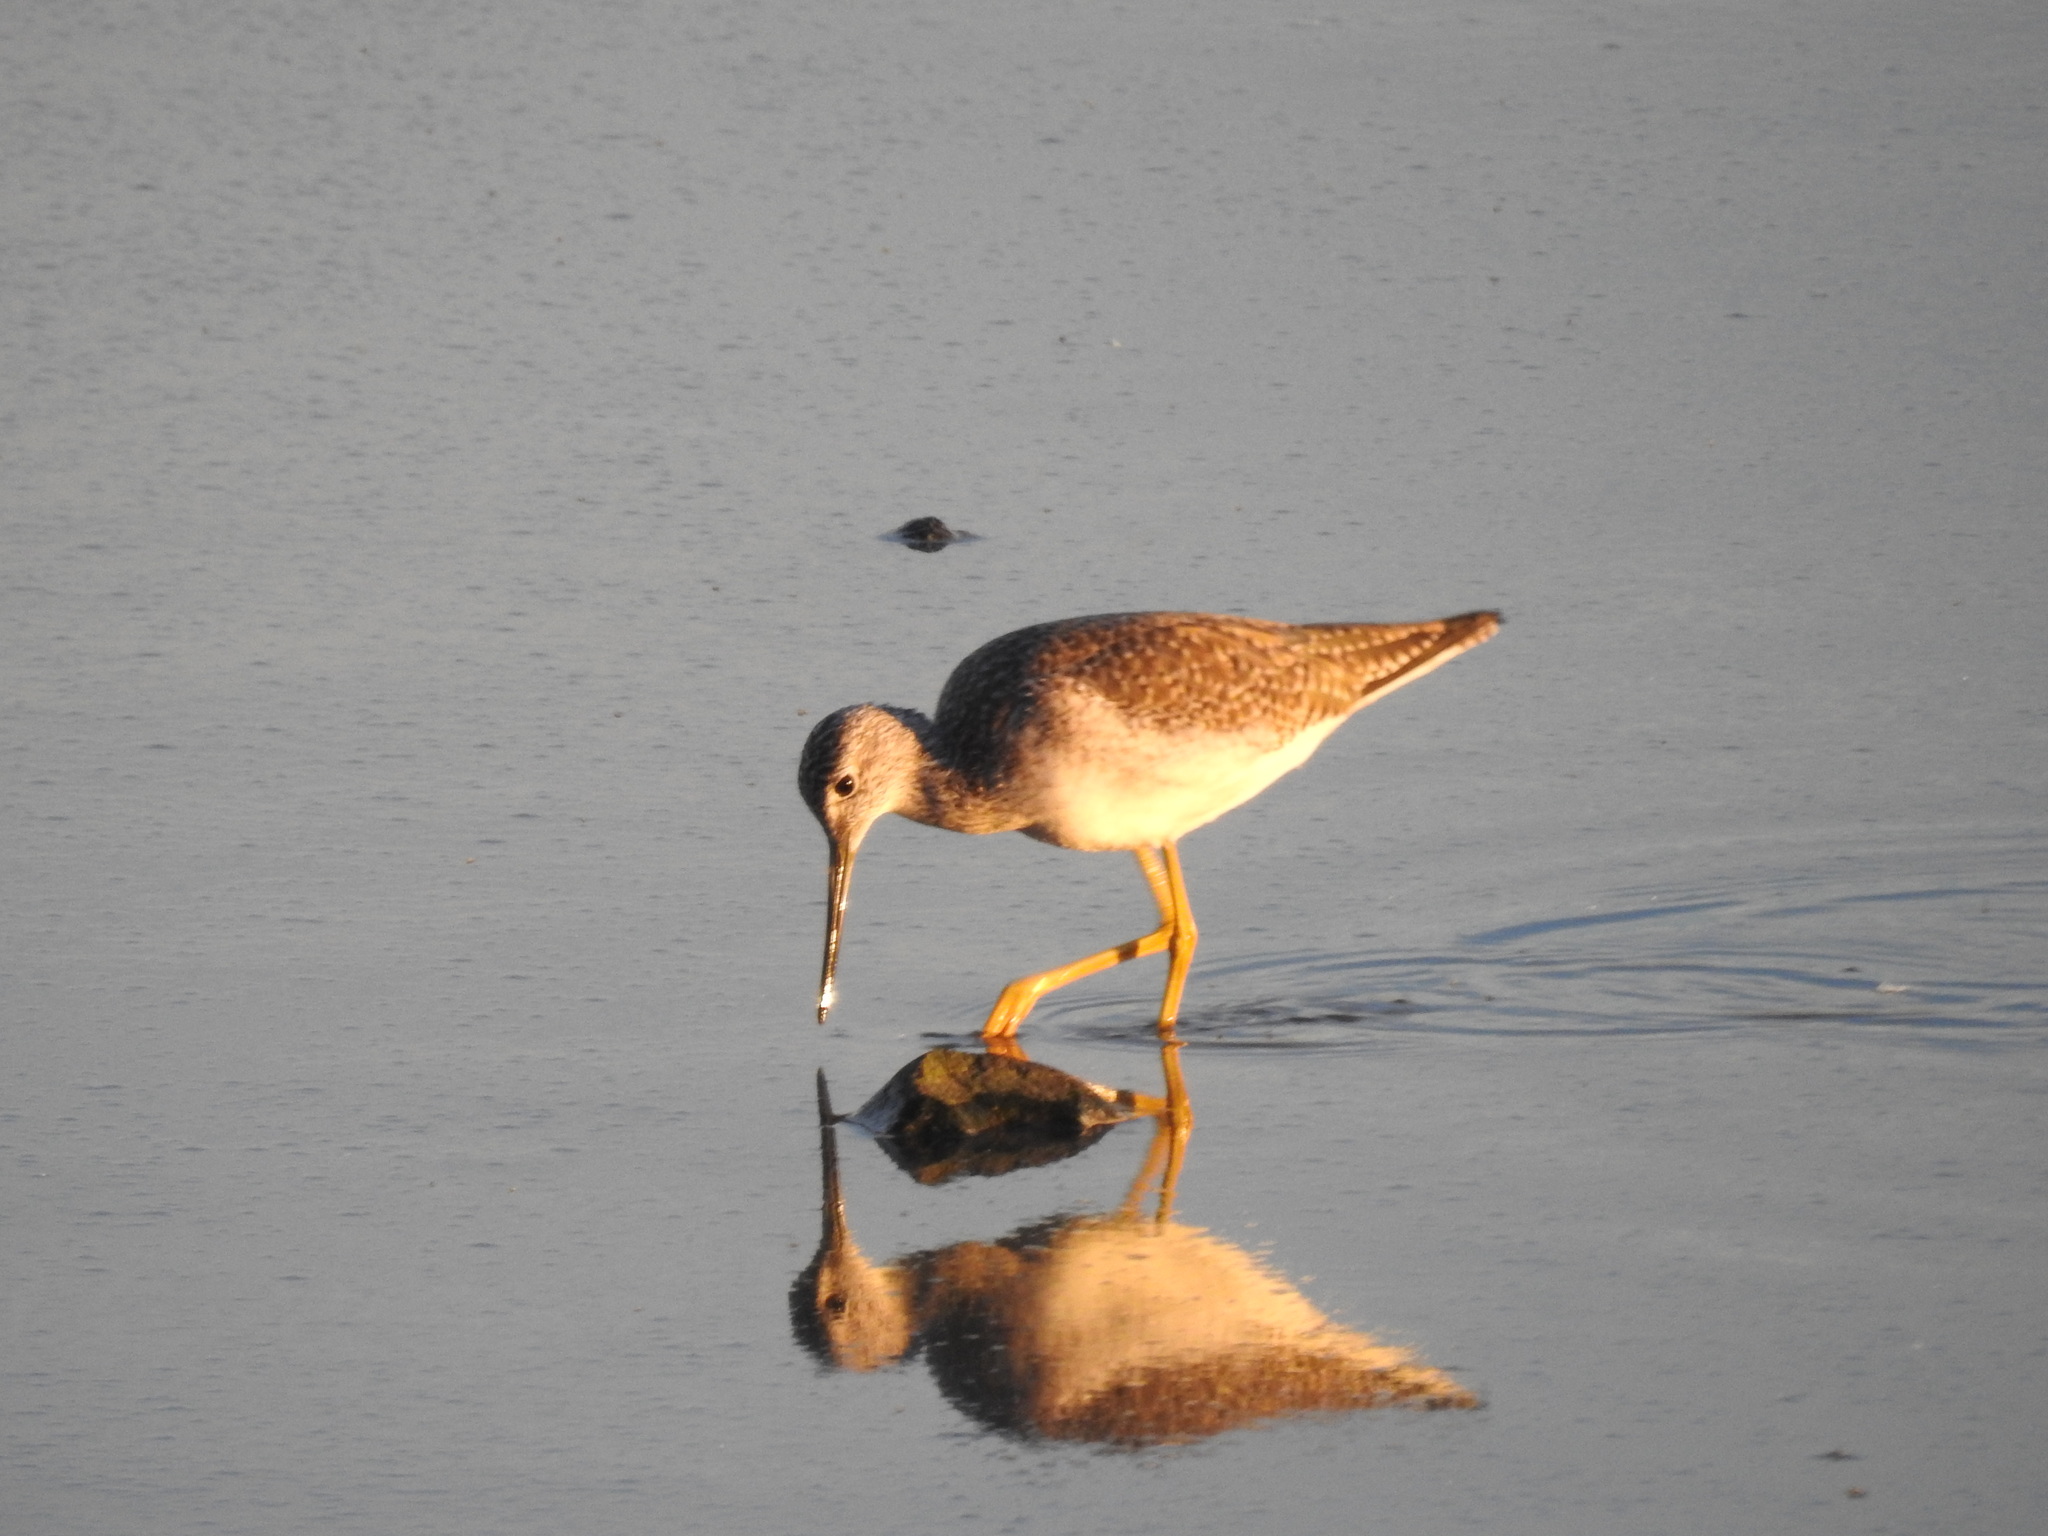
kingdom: Animalia
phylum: Chordata
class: Aves
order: Charadriiformes
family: Scolopacidae
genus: Tringa
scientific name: Tringa melanoleuca
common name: Greater yellowlegs
